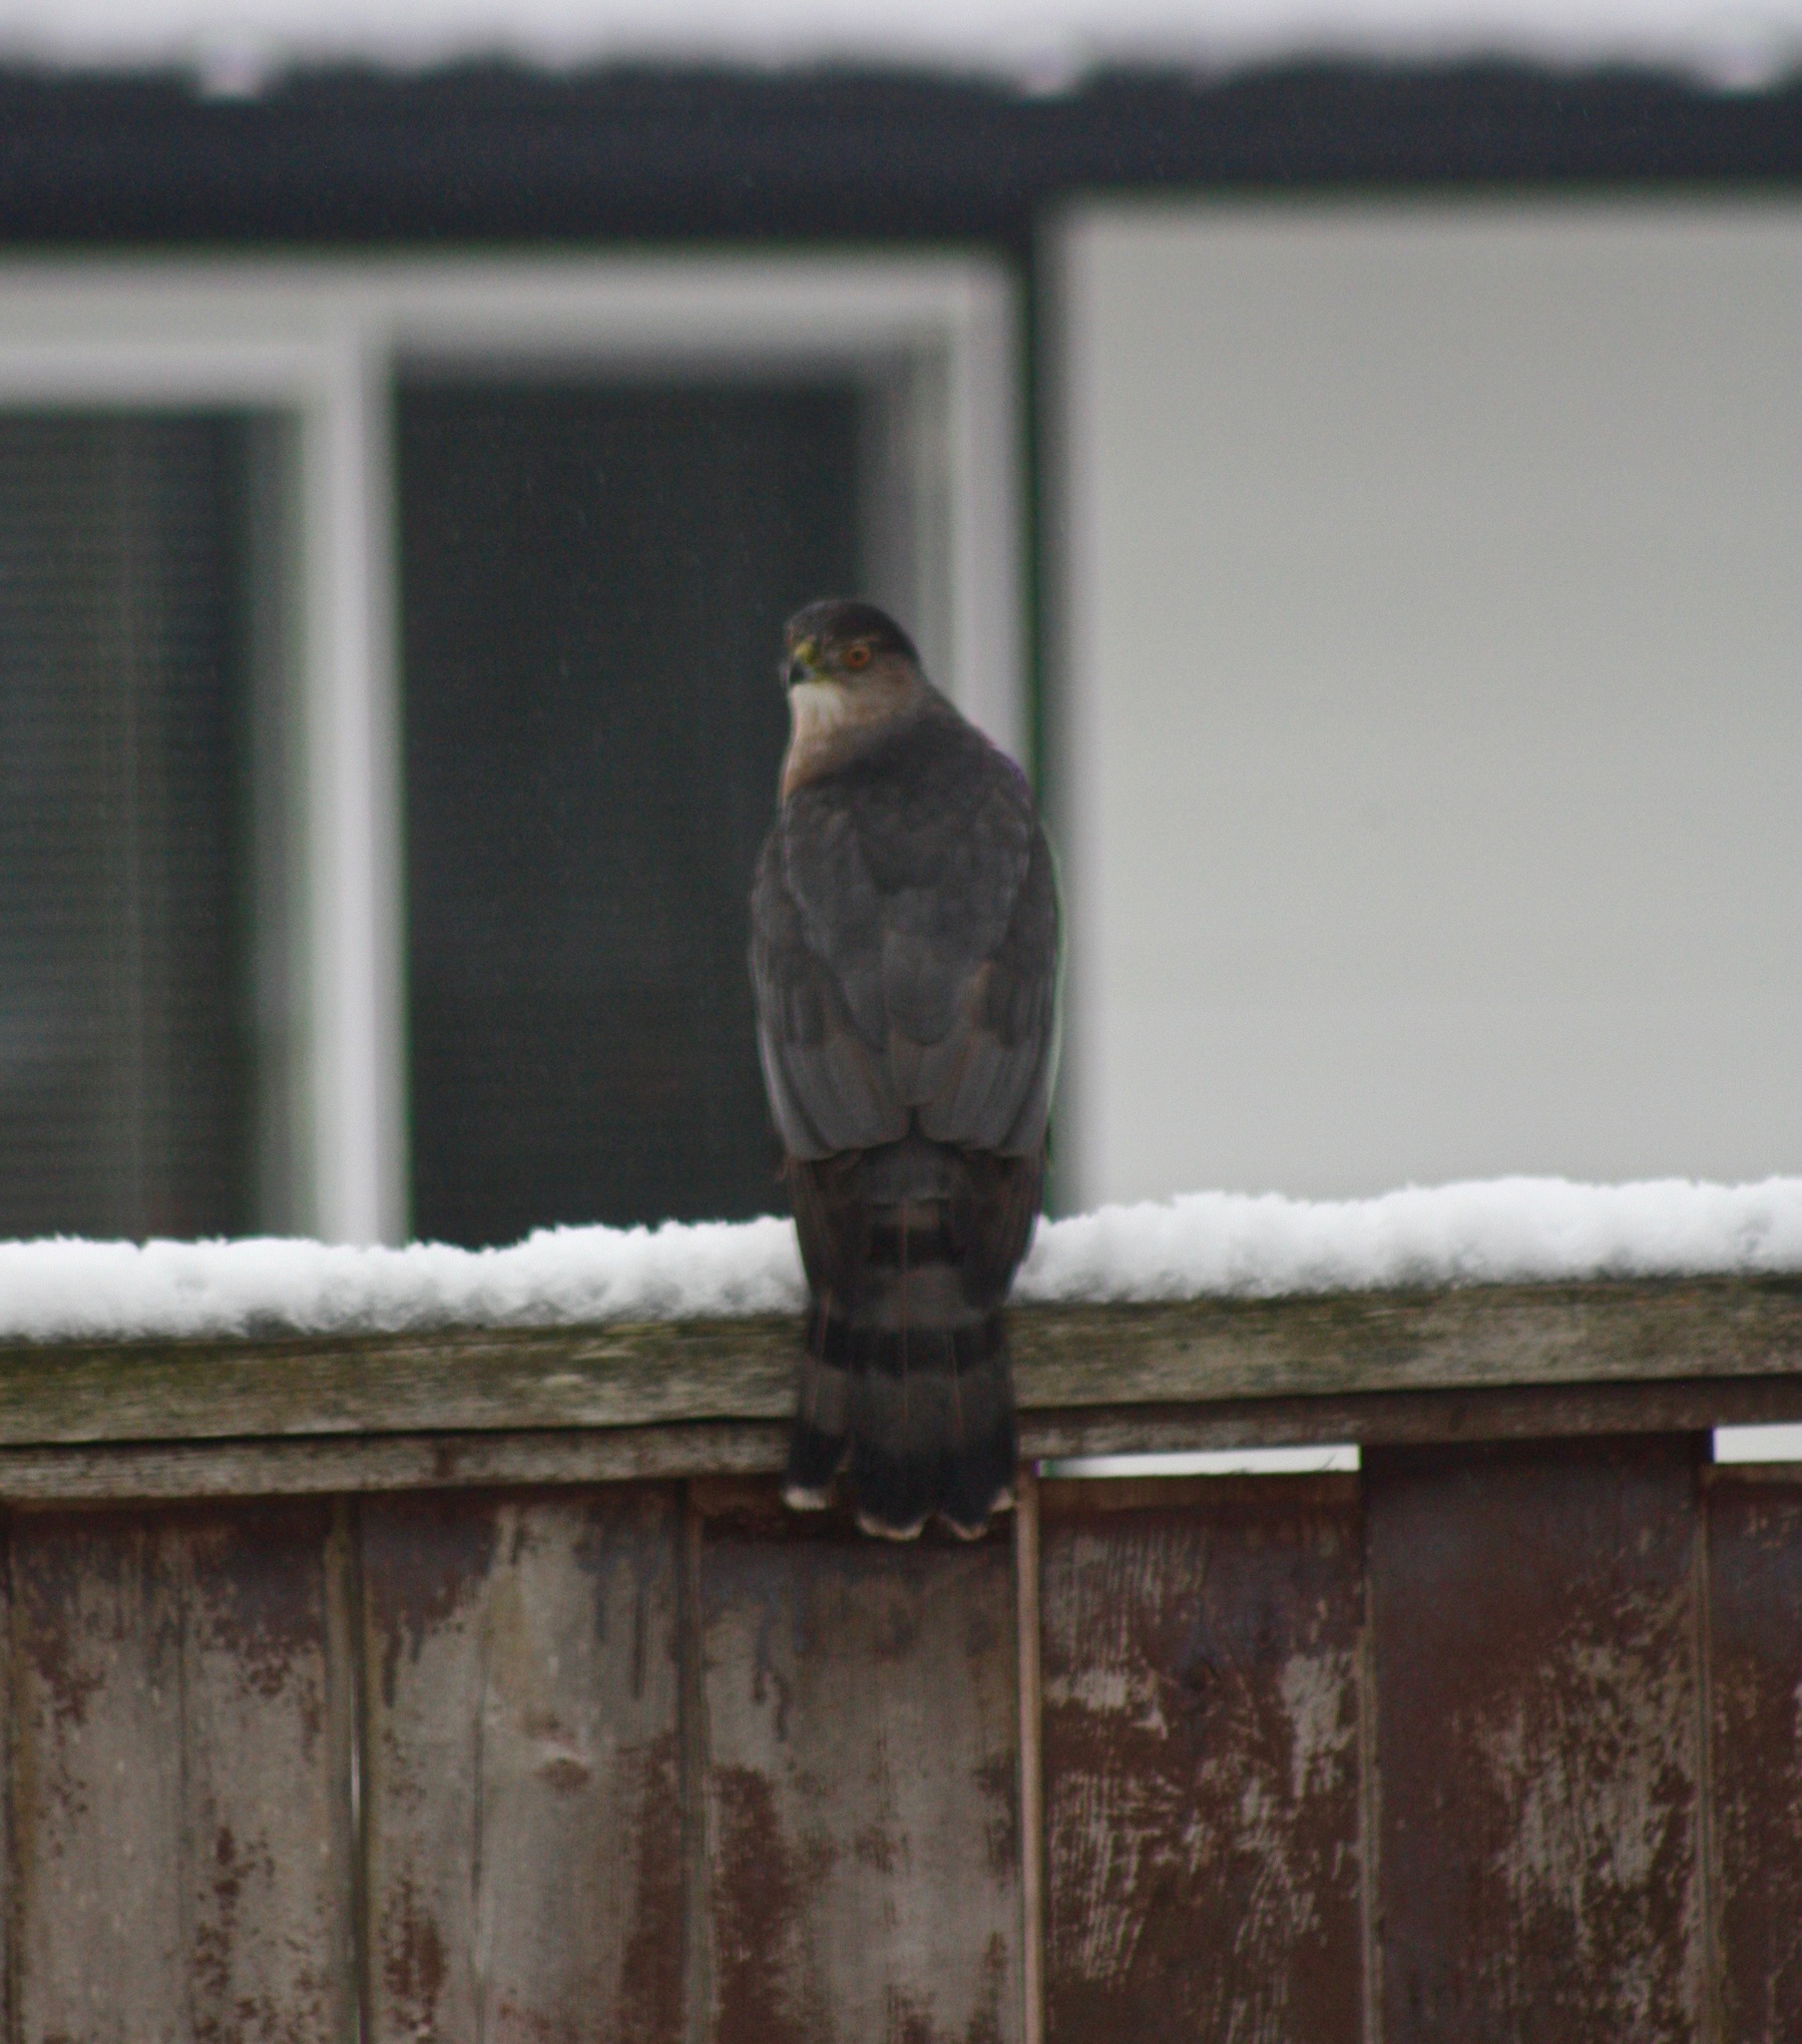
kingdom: Animalia
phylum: Chordata
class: Aves
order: Accipitriformes
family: Accipitridae
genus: Accipiter
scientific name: Accipiter cooperii
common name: Cooper's hawk
